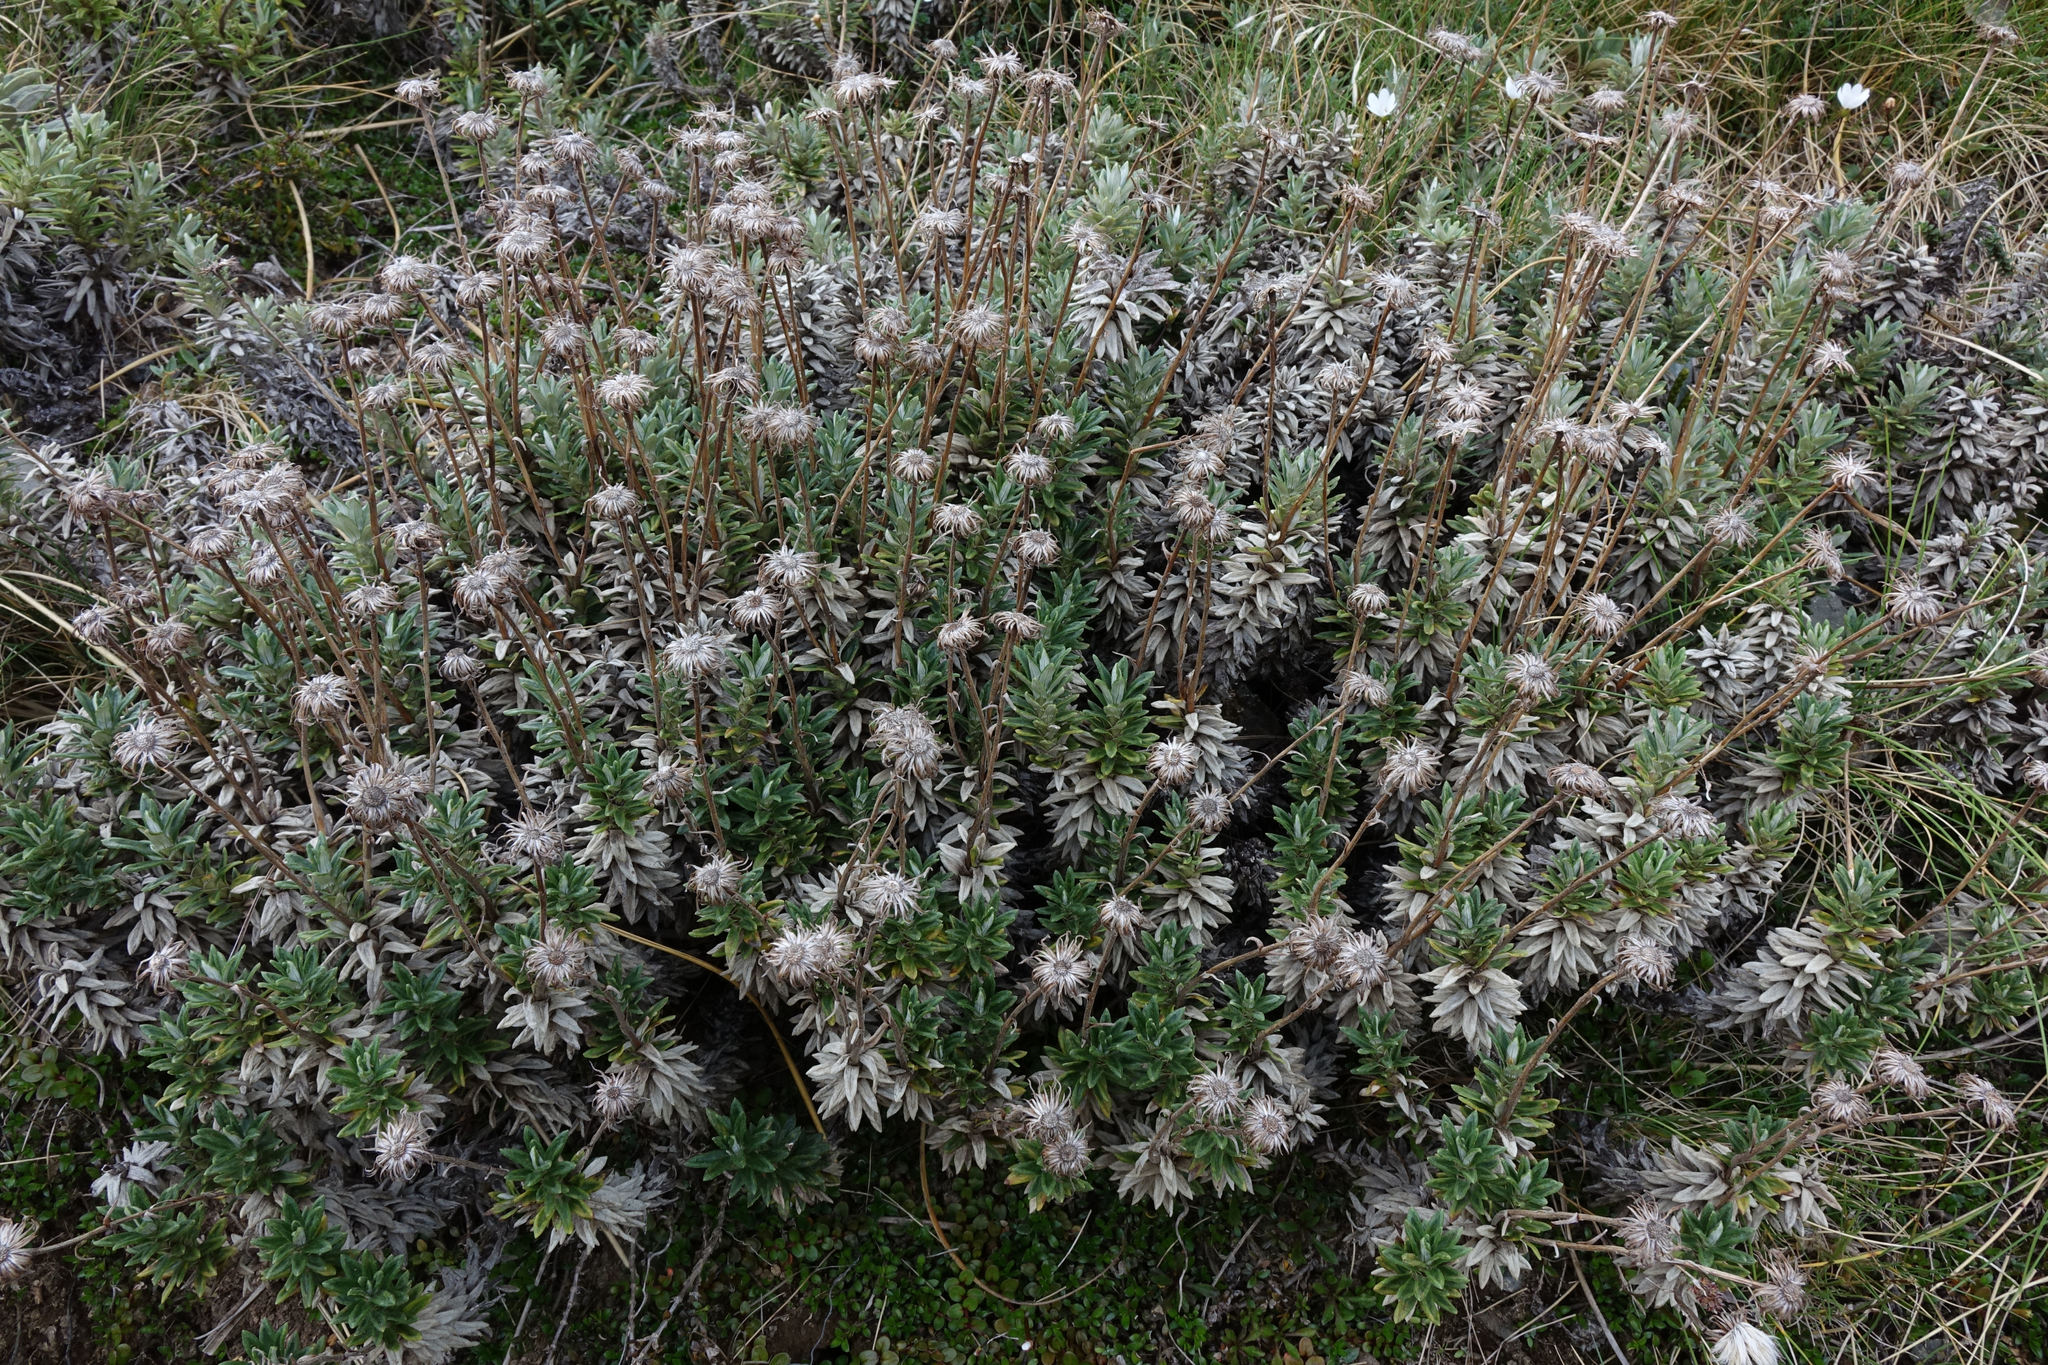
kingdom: Plantae
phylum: Tracheophyta
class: Magnoliopsida
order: Asterales
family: Asteraceae
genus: Celmisia
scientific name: Celmisia walkeri
